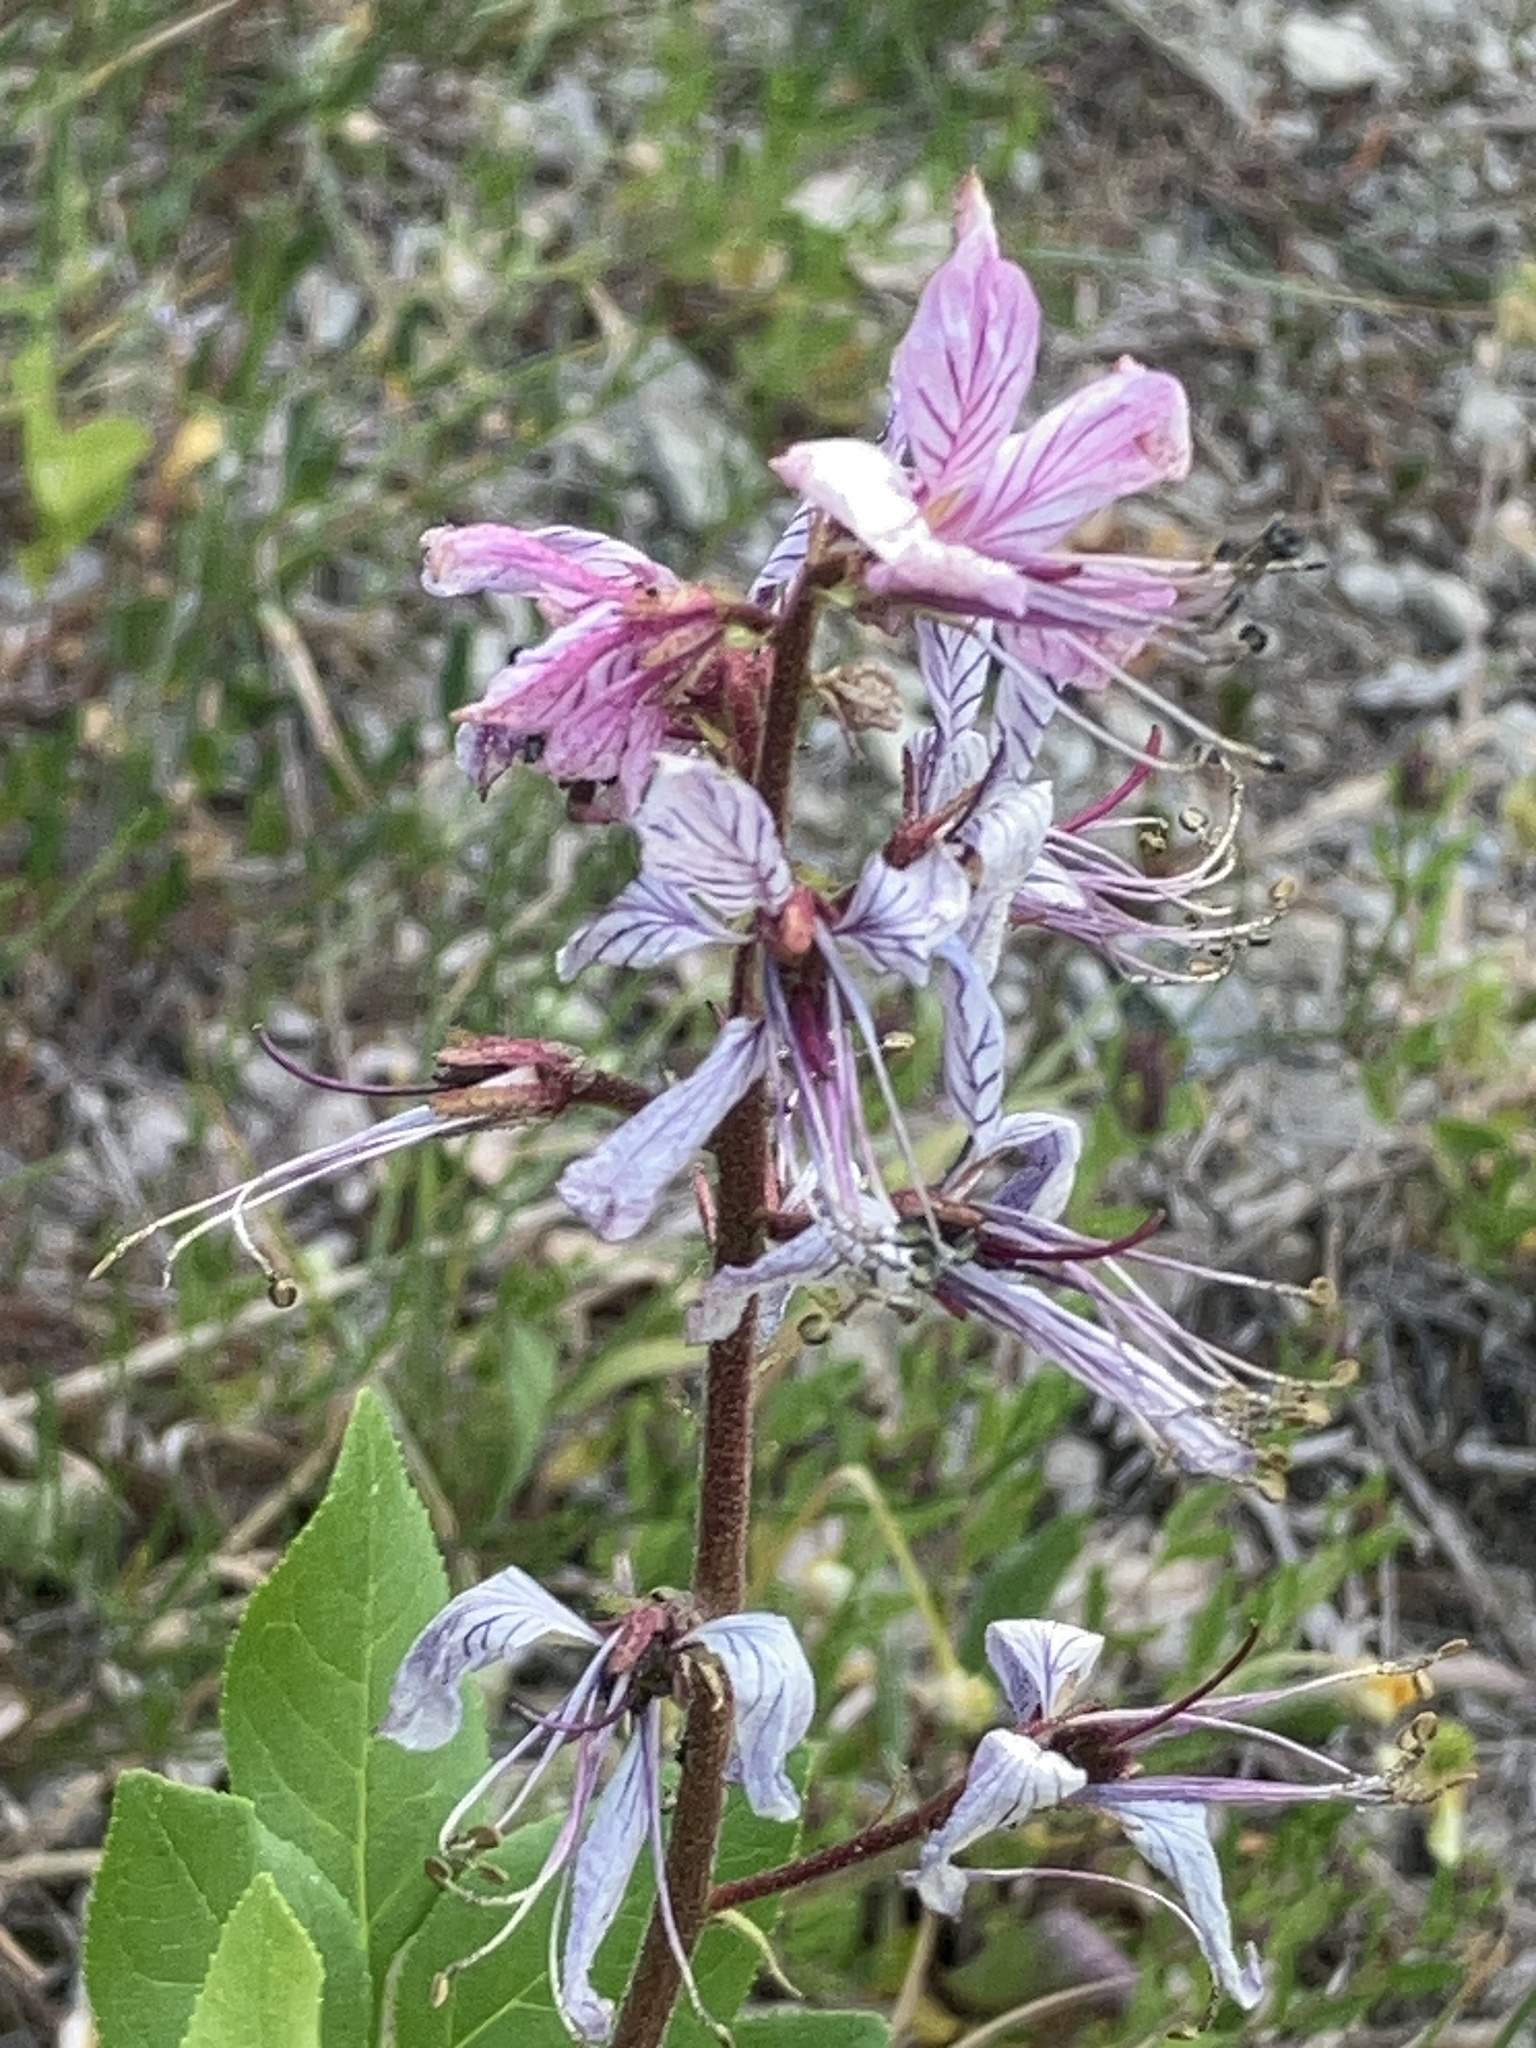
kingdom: Plantae
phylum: Tracheophyta
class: Magnoliopsida
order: Sapindales
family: Rutaceae
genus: Dictamnus
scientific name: Dictamnus albus
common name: Gasplant
